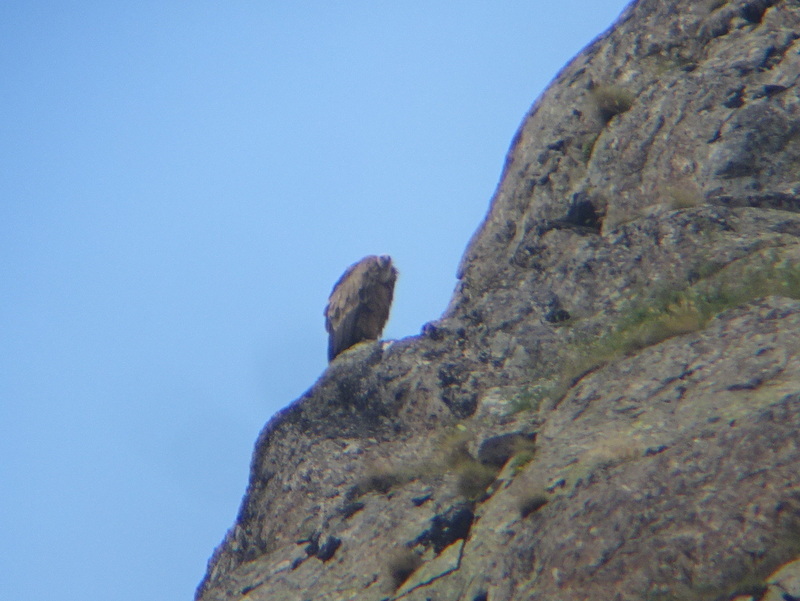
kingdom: Animalia
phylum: Chordata
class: Aves
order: Accipitriformes
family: Accipitridae
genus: Gyps
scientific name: Gyps fulvus
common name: Griffon vulture
